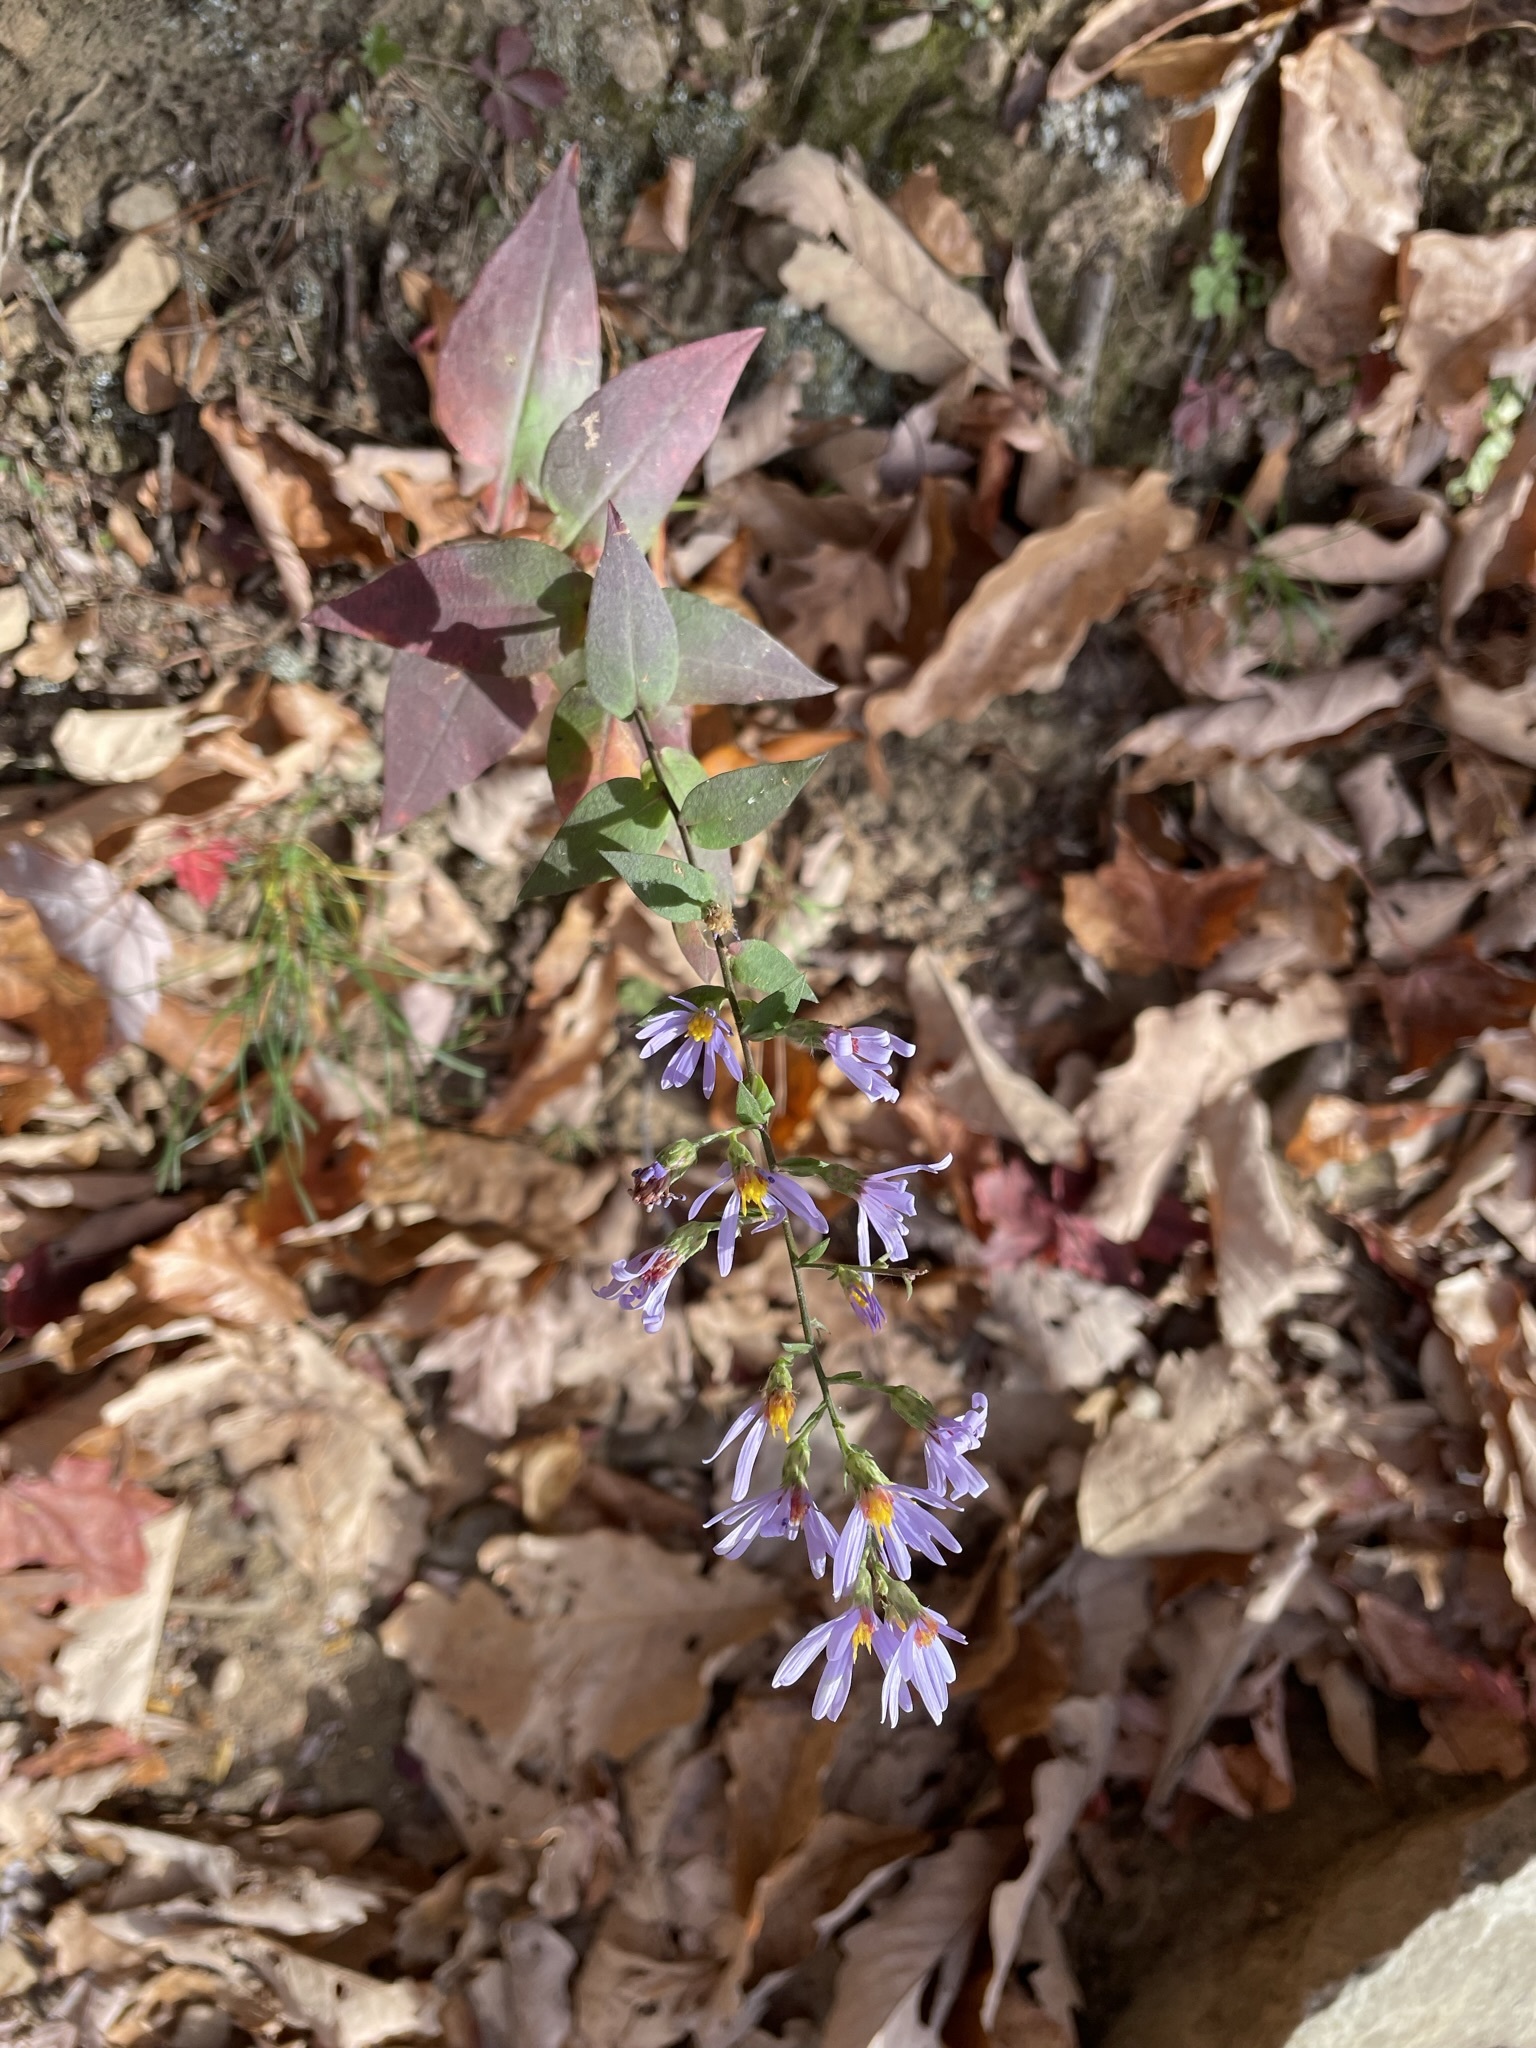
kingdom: Plantae
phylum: Tracheophyta
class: Magnoliopsida
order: Asterales
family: Asteraceae
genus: Symphyotrichum
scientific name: Symphyotrichum undulatum
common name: Clasping heart-leaf aster
